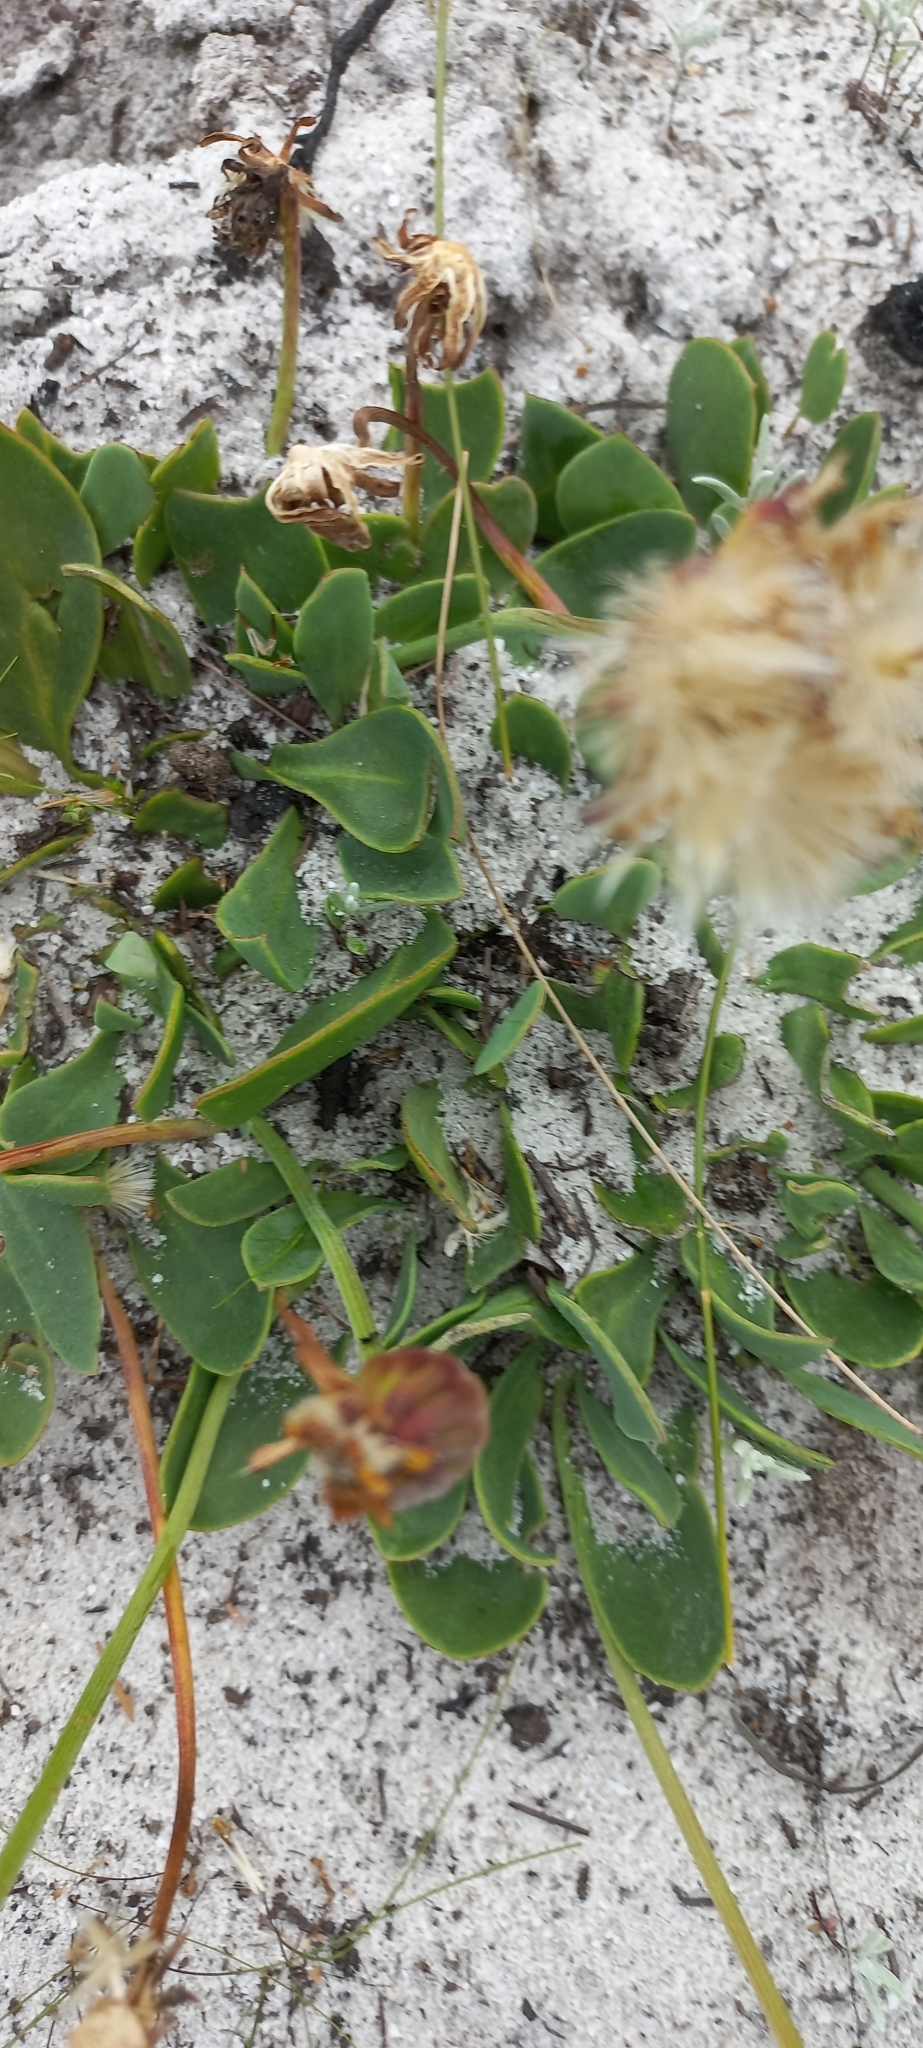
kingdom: Plantae
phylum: Tracheophyta
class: Magnoliopsida
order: Asterales
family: Asteraceae
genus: Othonna
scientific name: Othonna bulbosa
